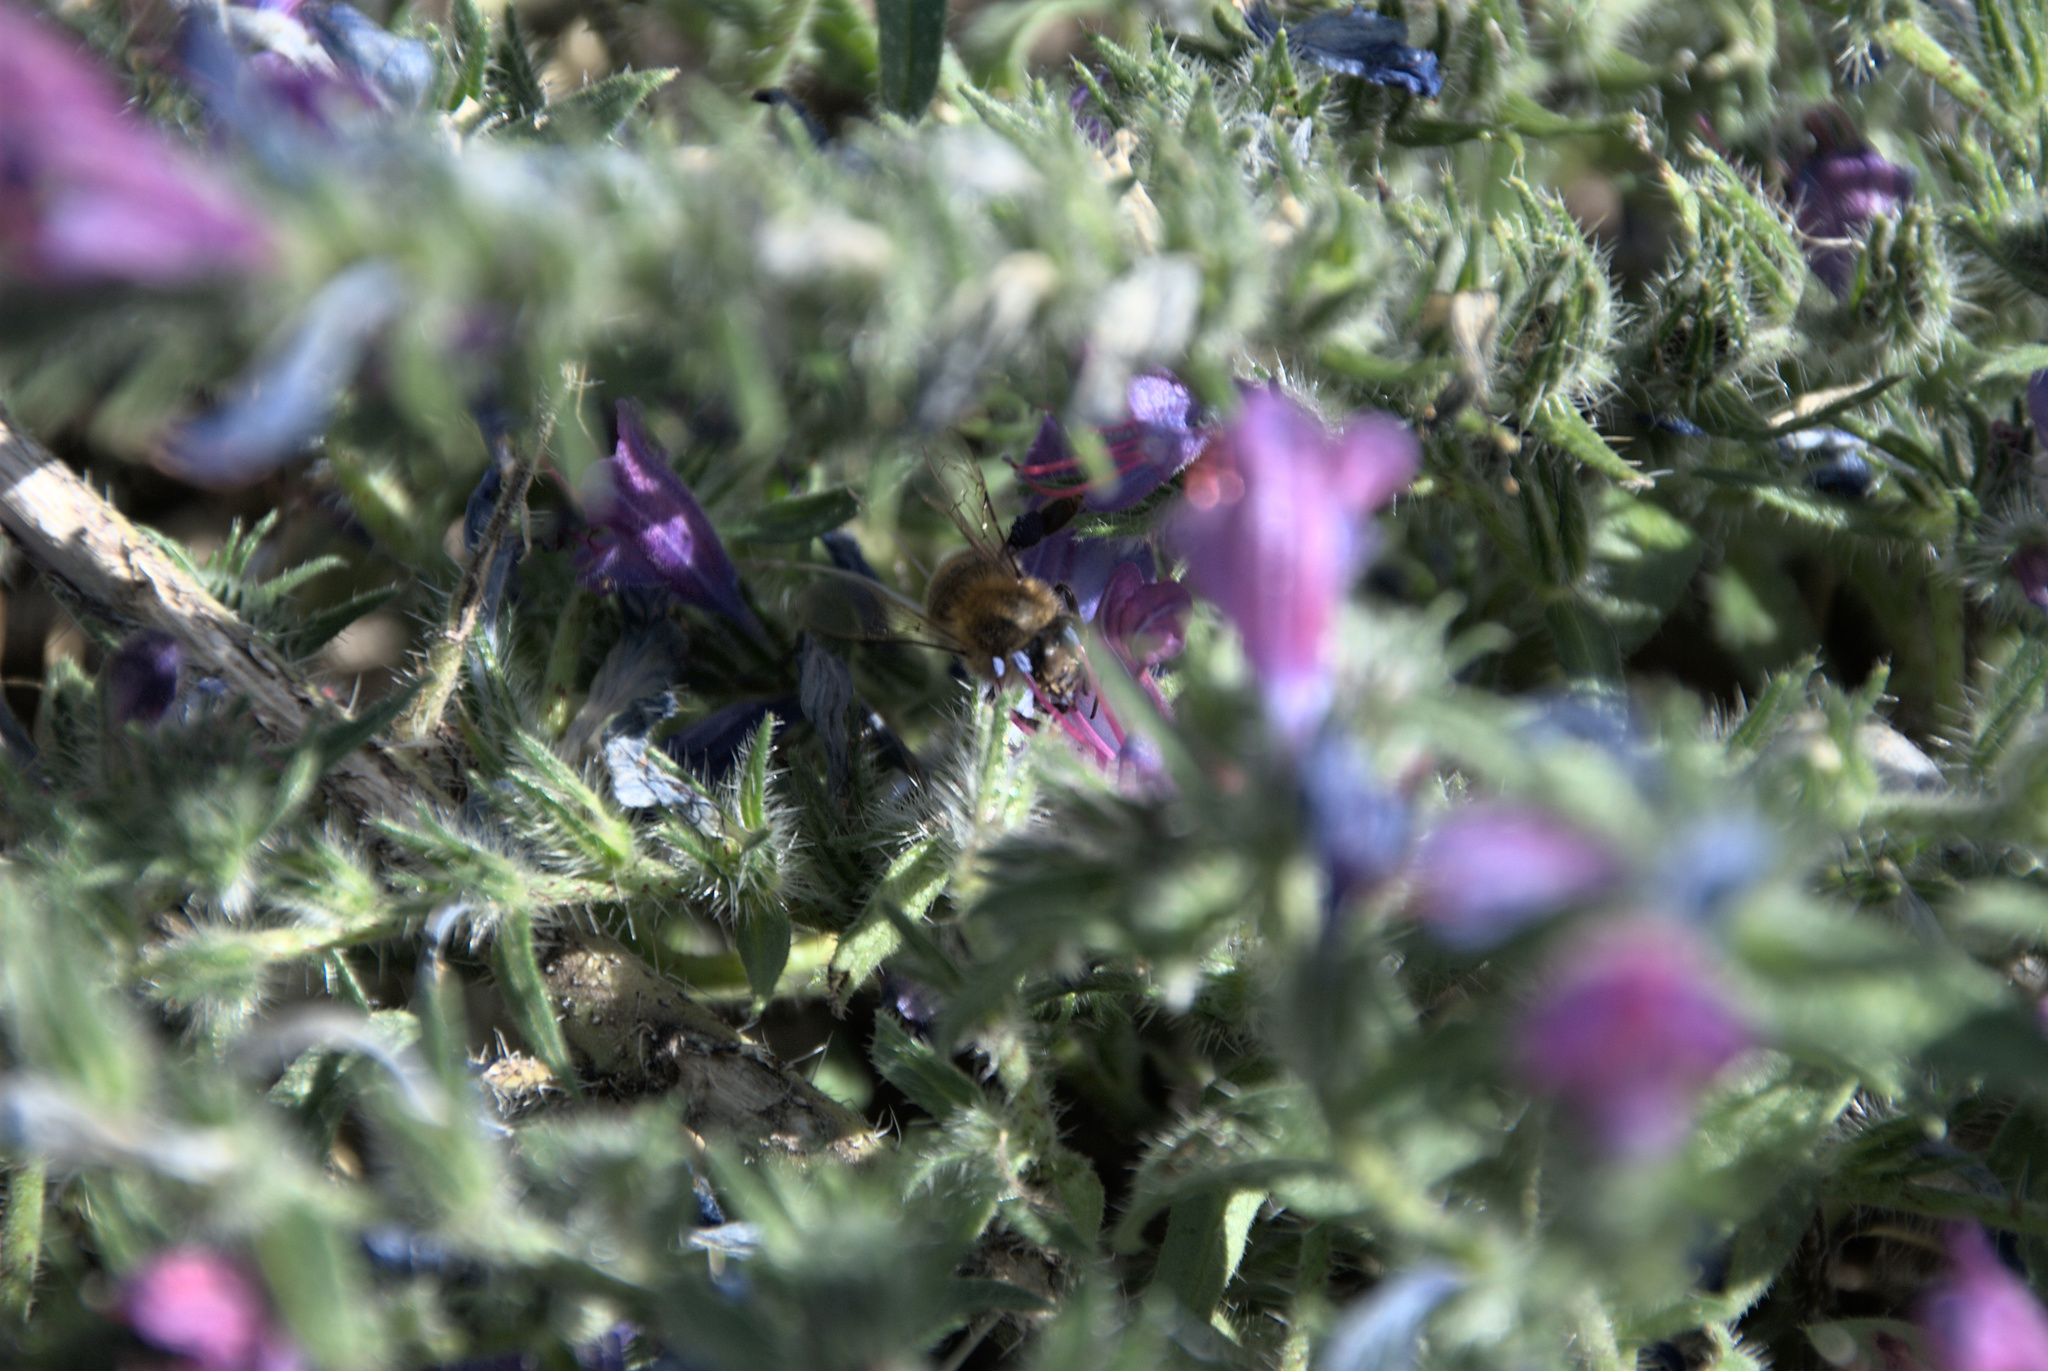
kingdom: Animalia
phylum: Arthropoda
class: Insecta
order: Hymenoptera
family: Apidae
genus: Apis
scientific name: Apis mellifera
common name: Honey bee
